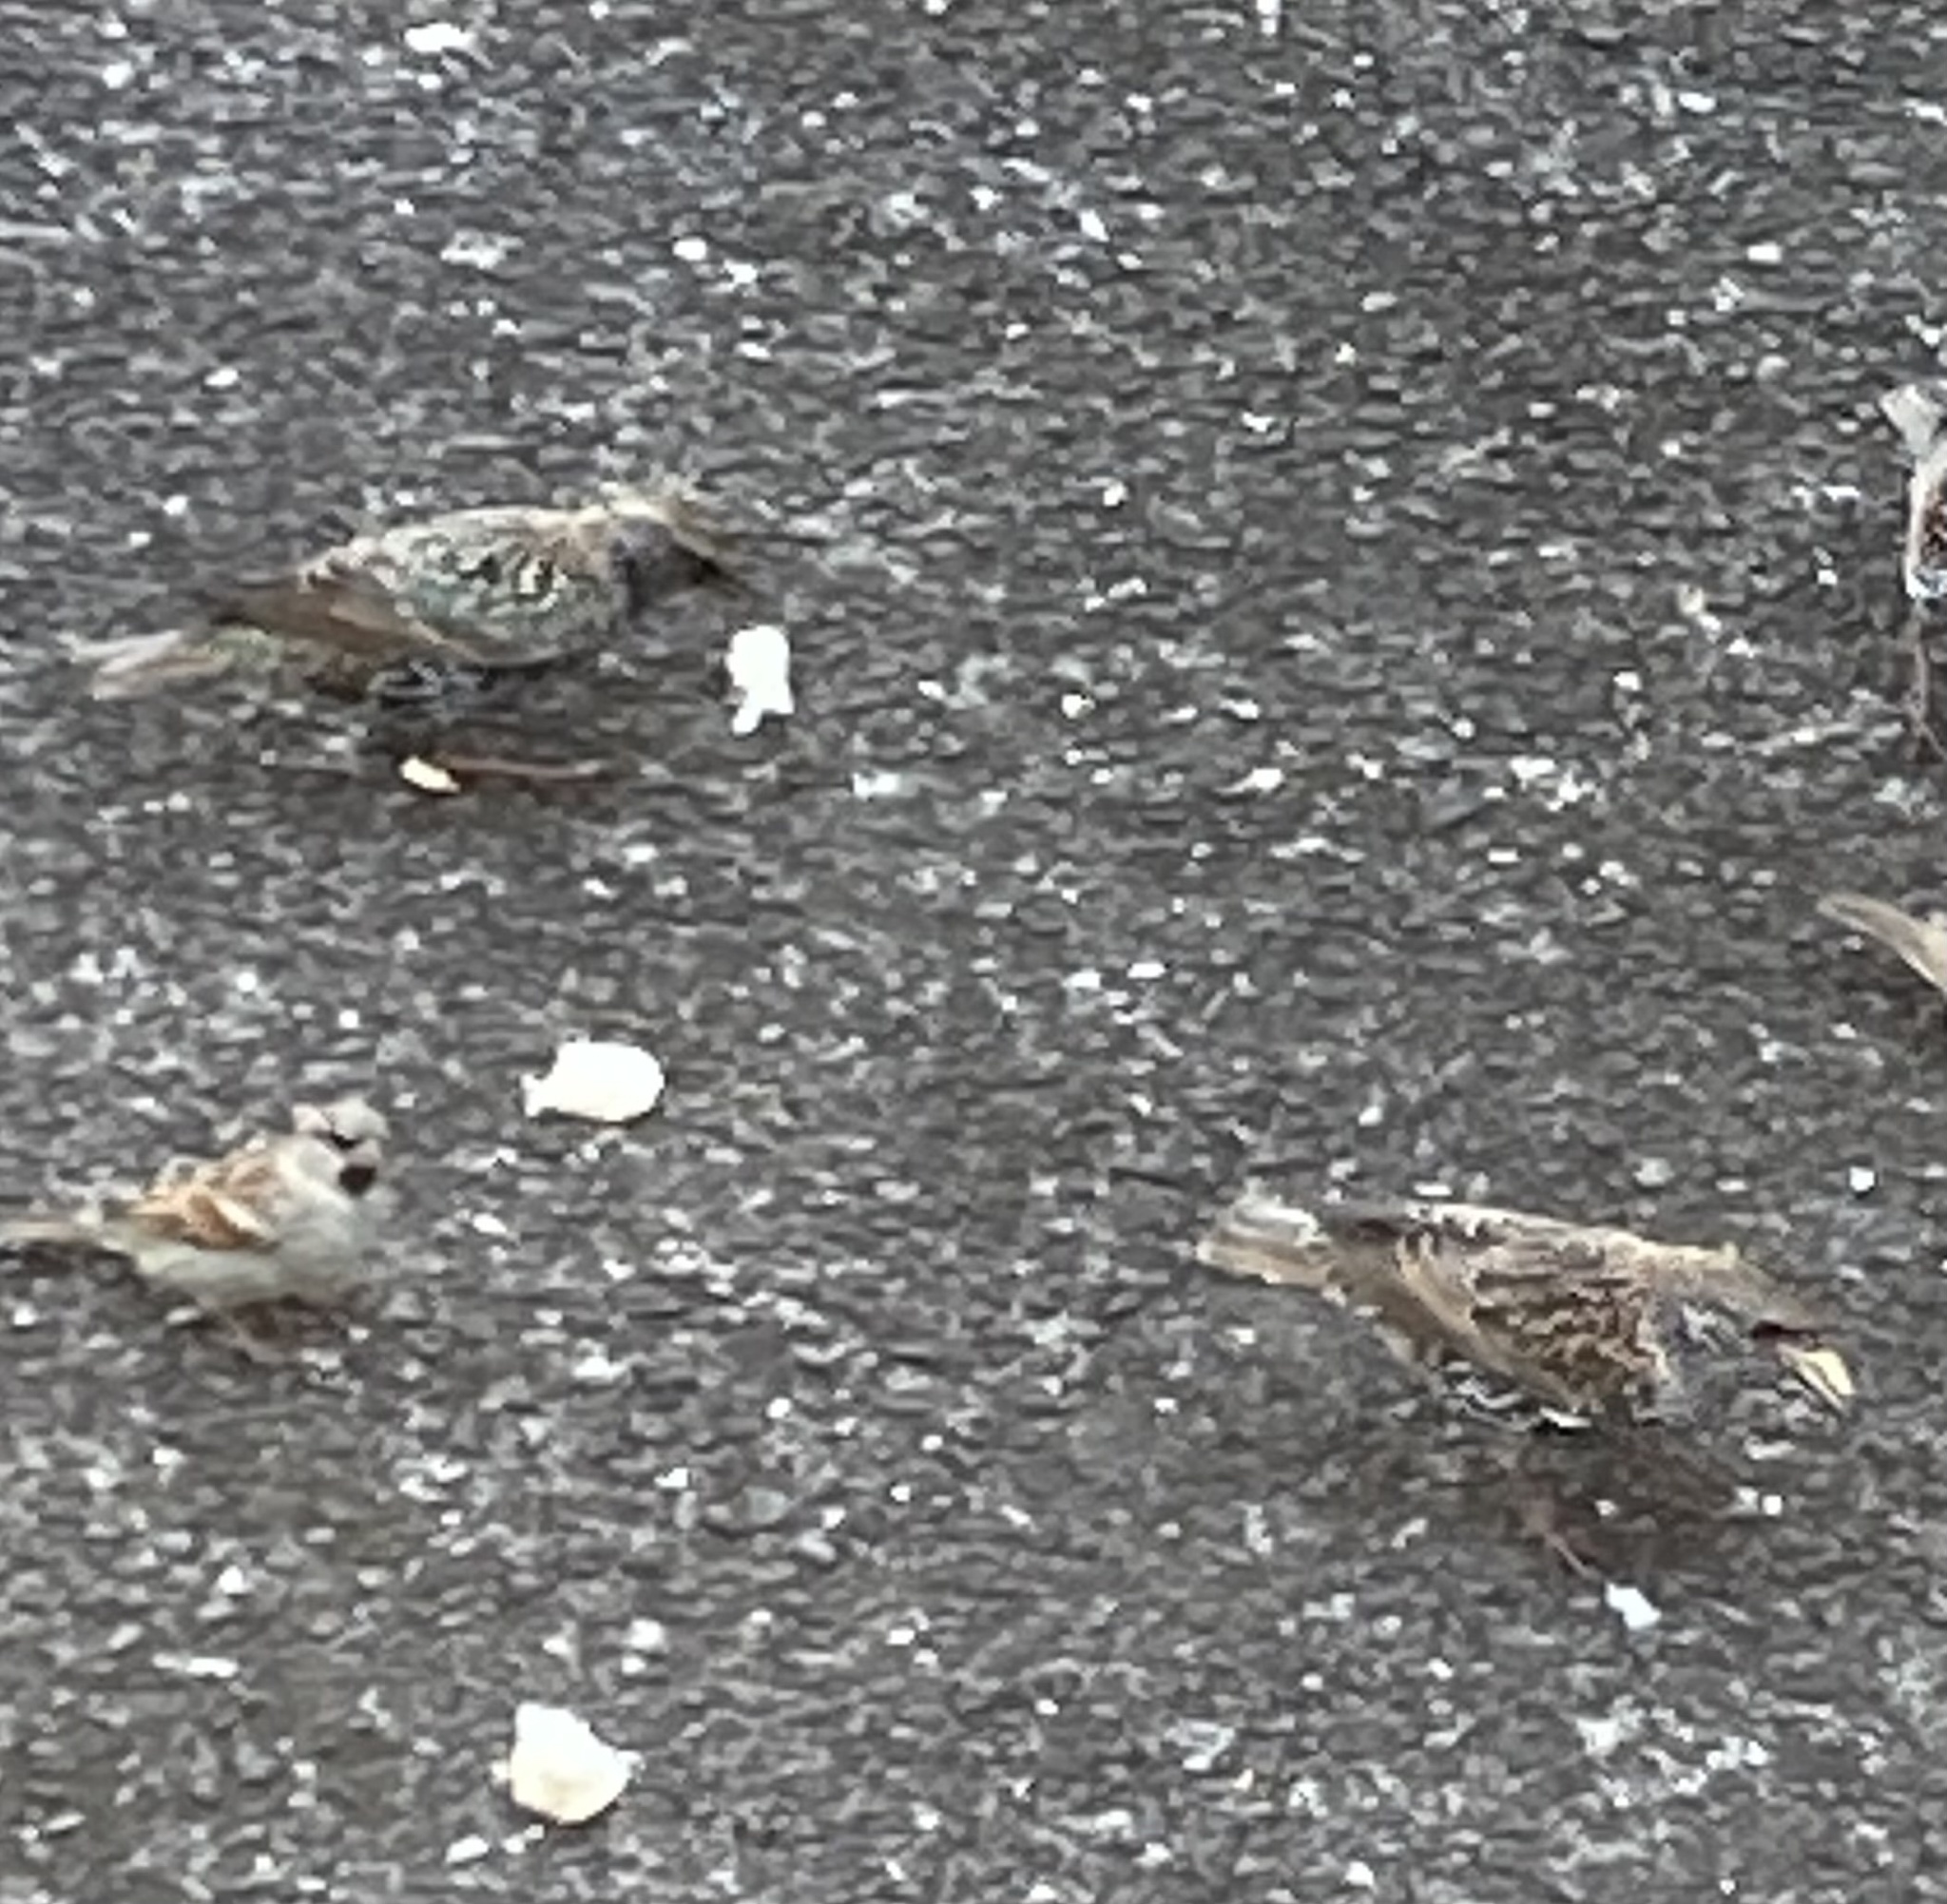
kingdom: Animalia
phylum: Chordata
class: Aves
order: Passeriformes
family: Sturnidae
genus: Sturnus
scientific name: Sturnus vulgaris
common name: Common starling
